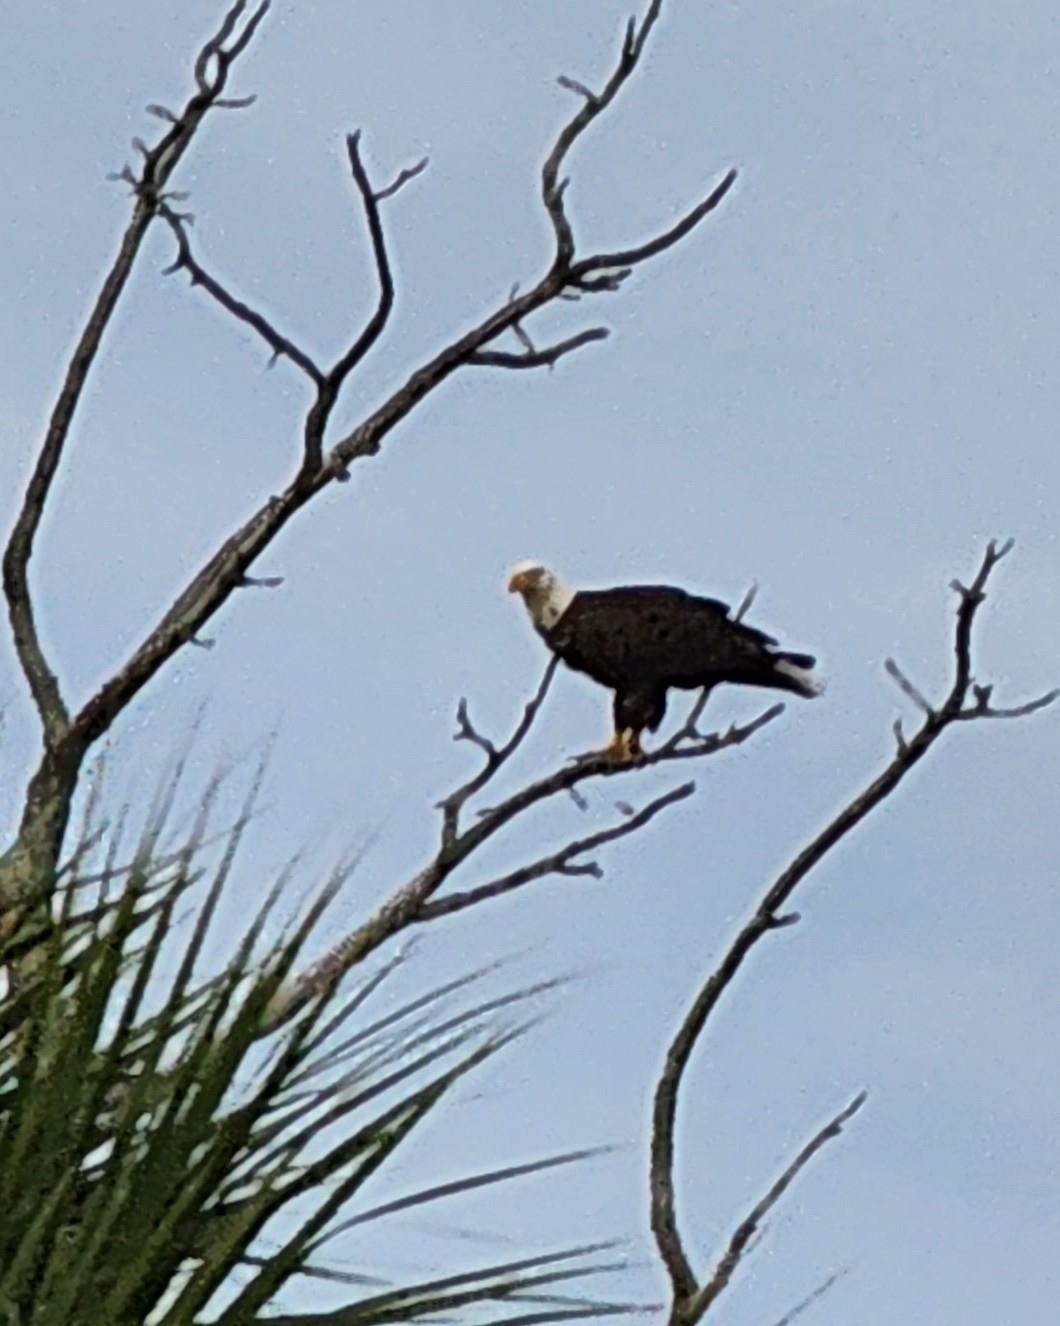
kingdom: Animalia
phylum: Chordata
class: Aves
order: Accipitriformes
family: Accipitridae
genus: Haliaeetus
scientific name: Haliaeetus leucocephalus
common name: Bald eagle
